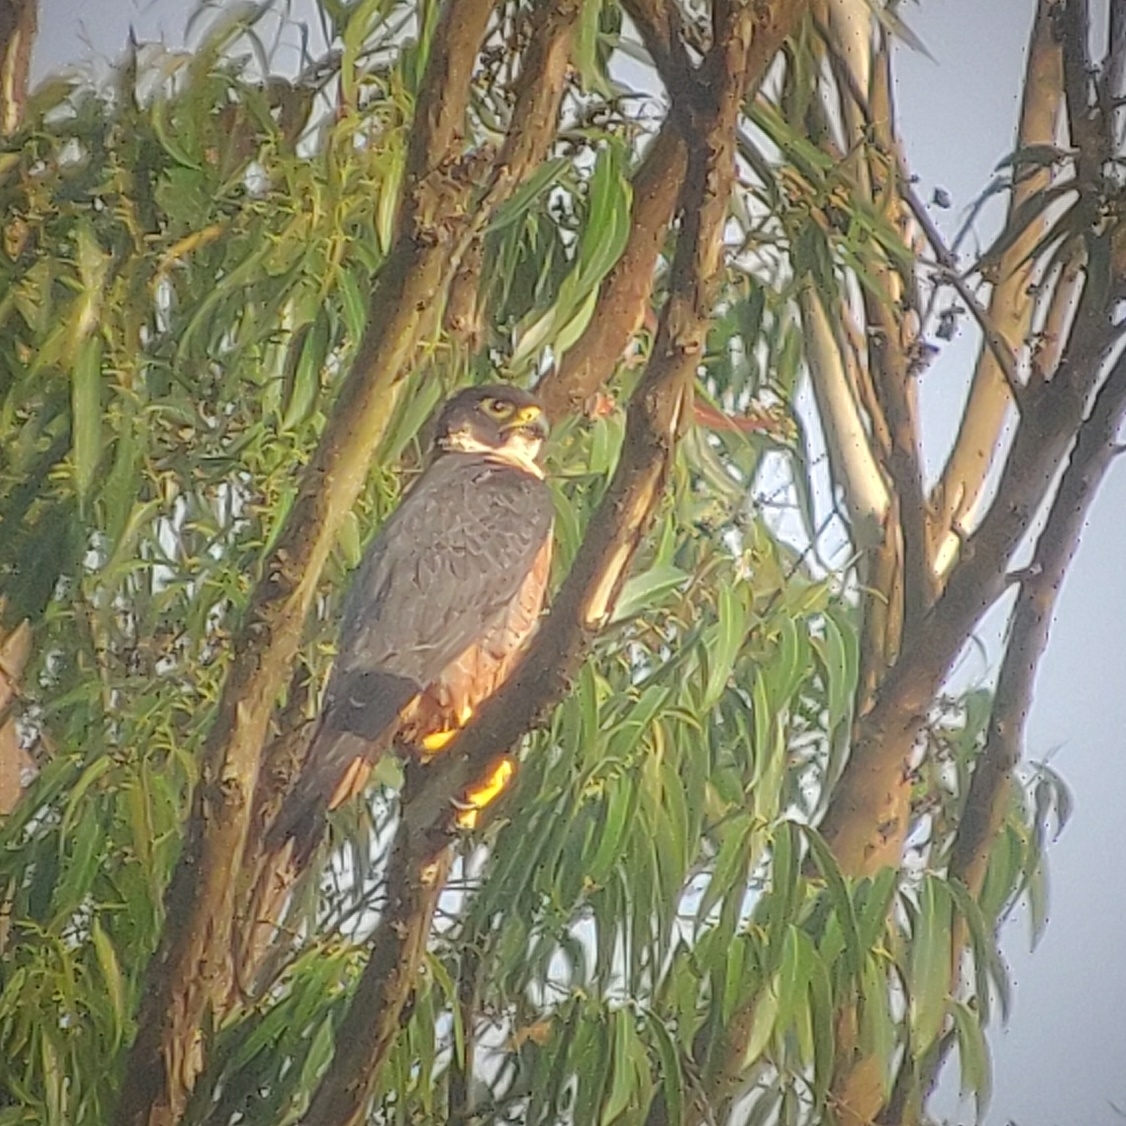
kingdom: Animalia
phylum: Chordata
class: Aves
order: Falconiformes
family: Falconidae
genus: Falco
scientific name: Falco peregrinus
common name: Peregrine falcon
